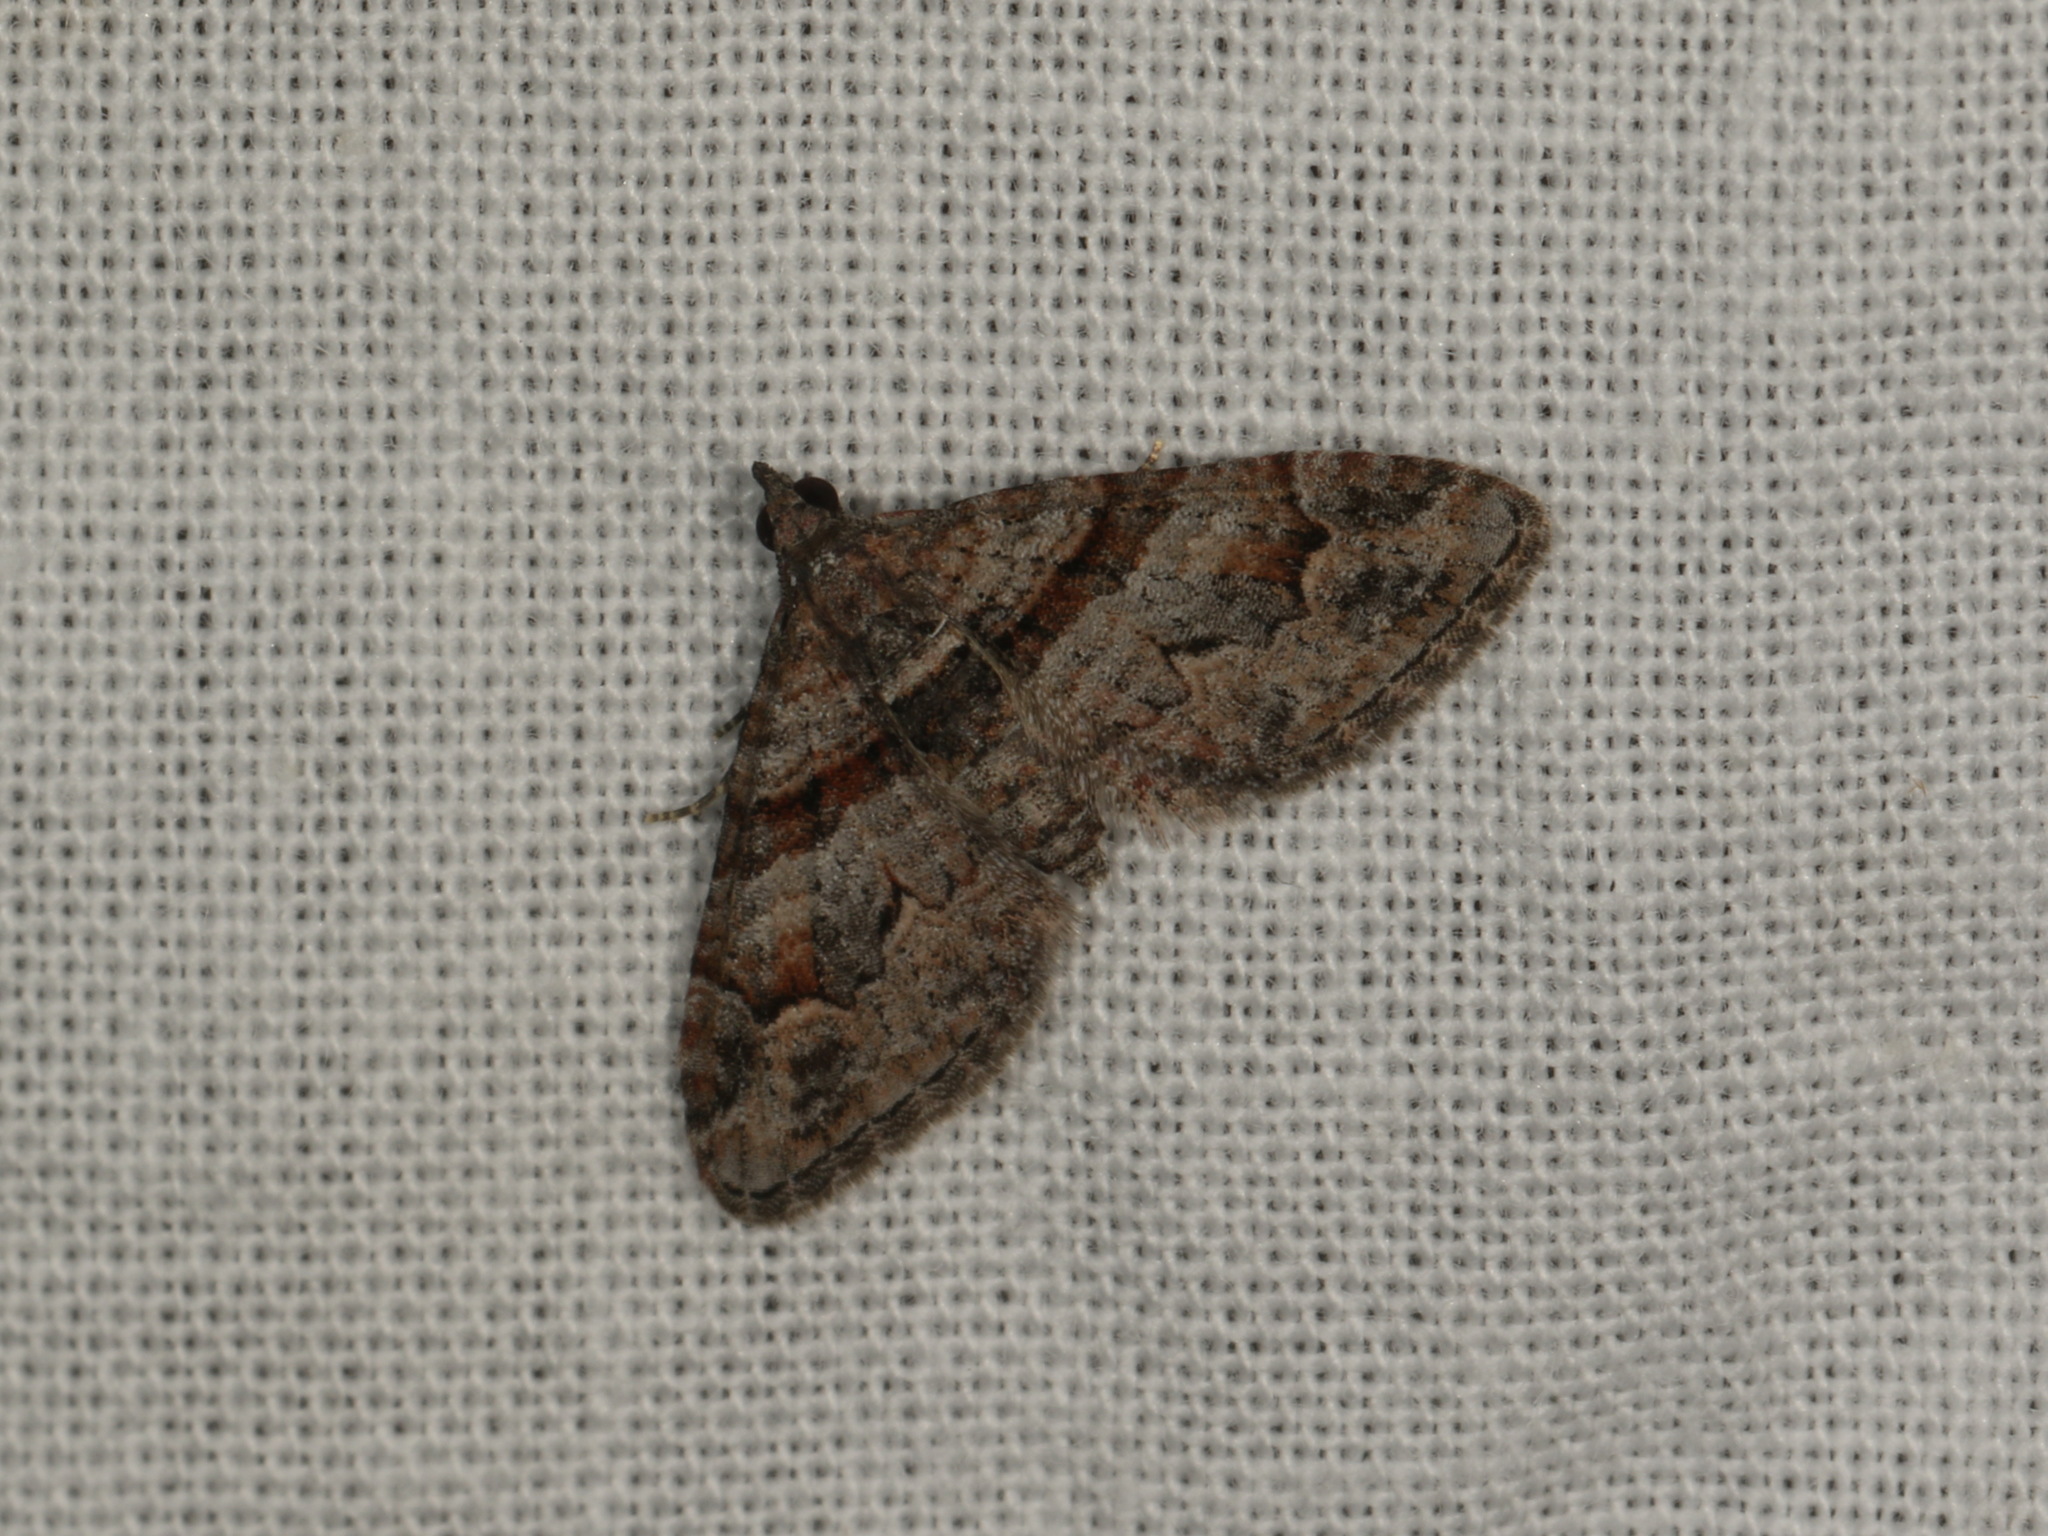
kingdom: Animalia
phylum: Arthropoda
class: Insecta
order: Lepidoptera
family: Geometridae
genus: Phrissogonus
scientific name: Phrissogonus laticostata
